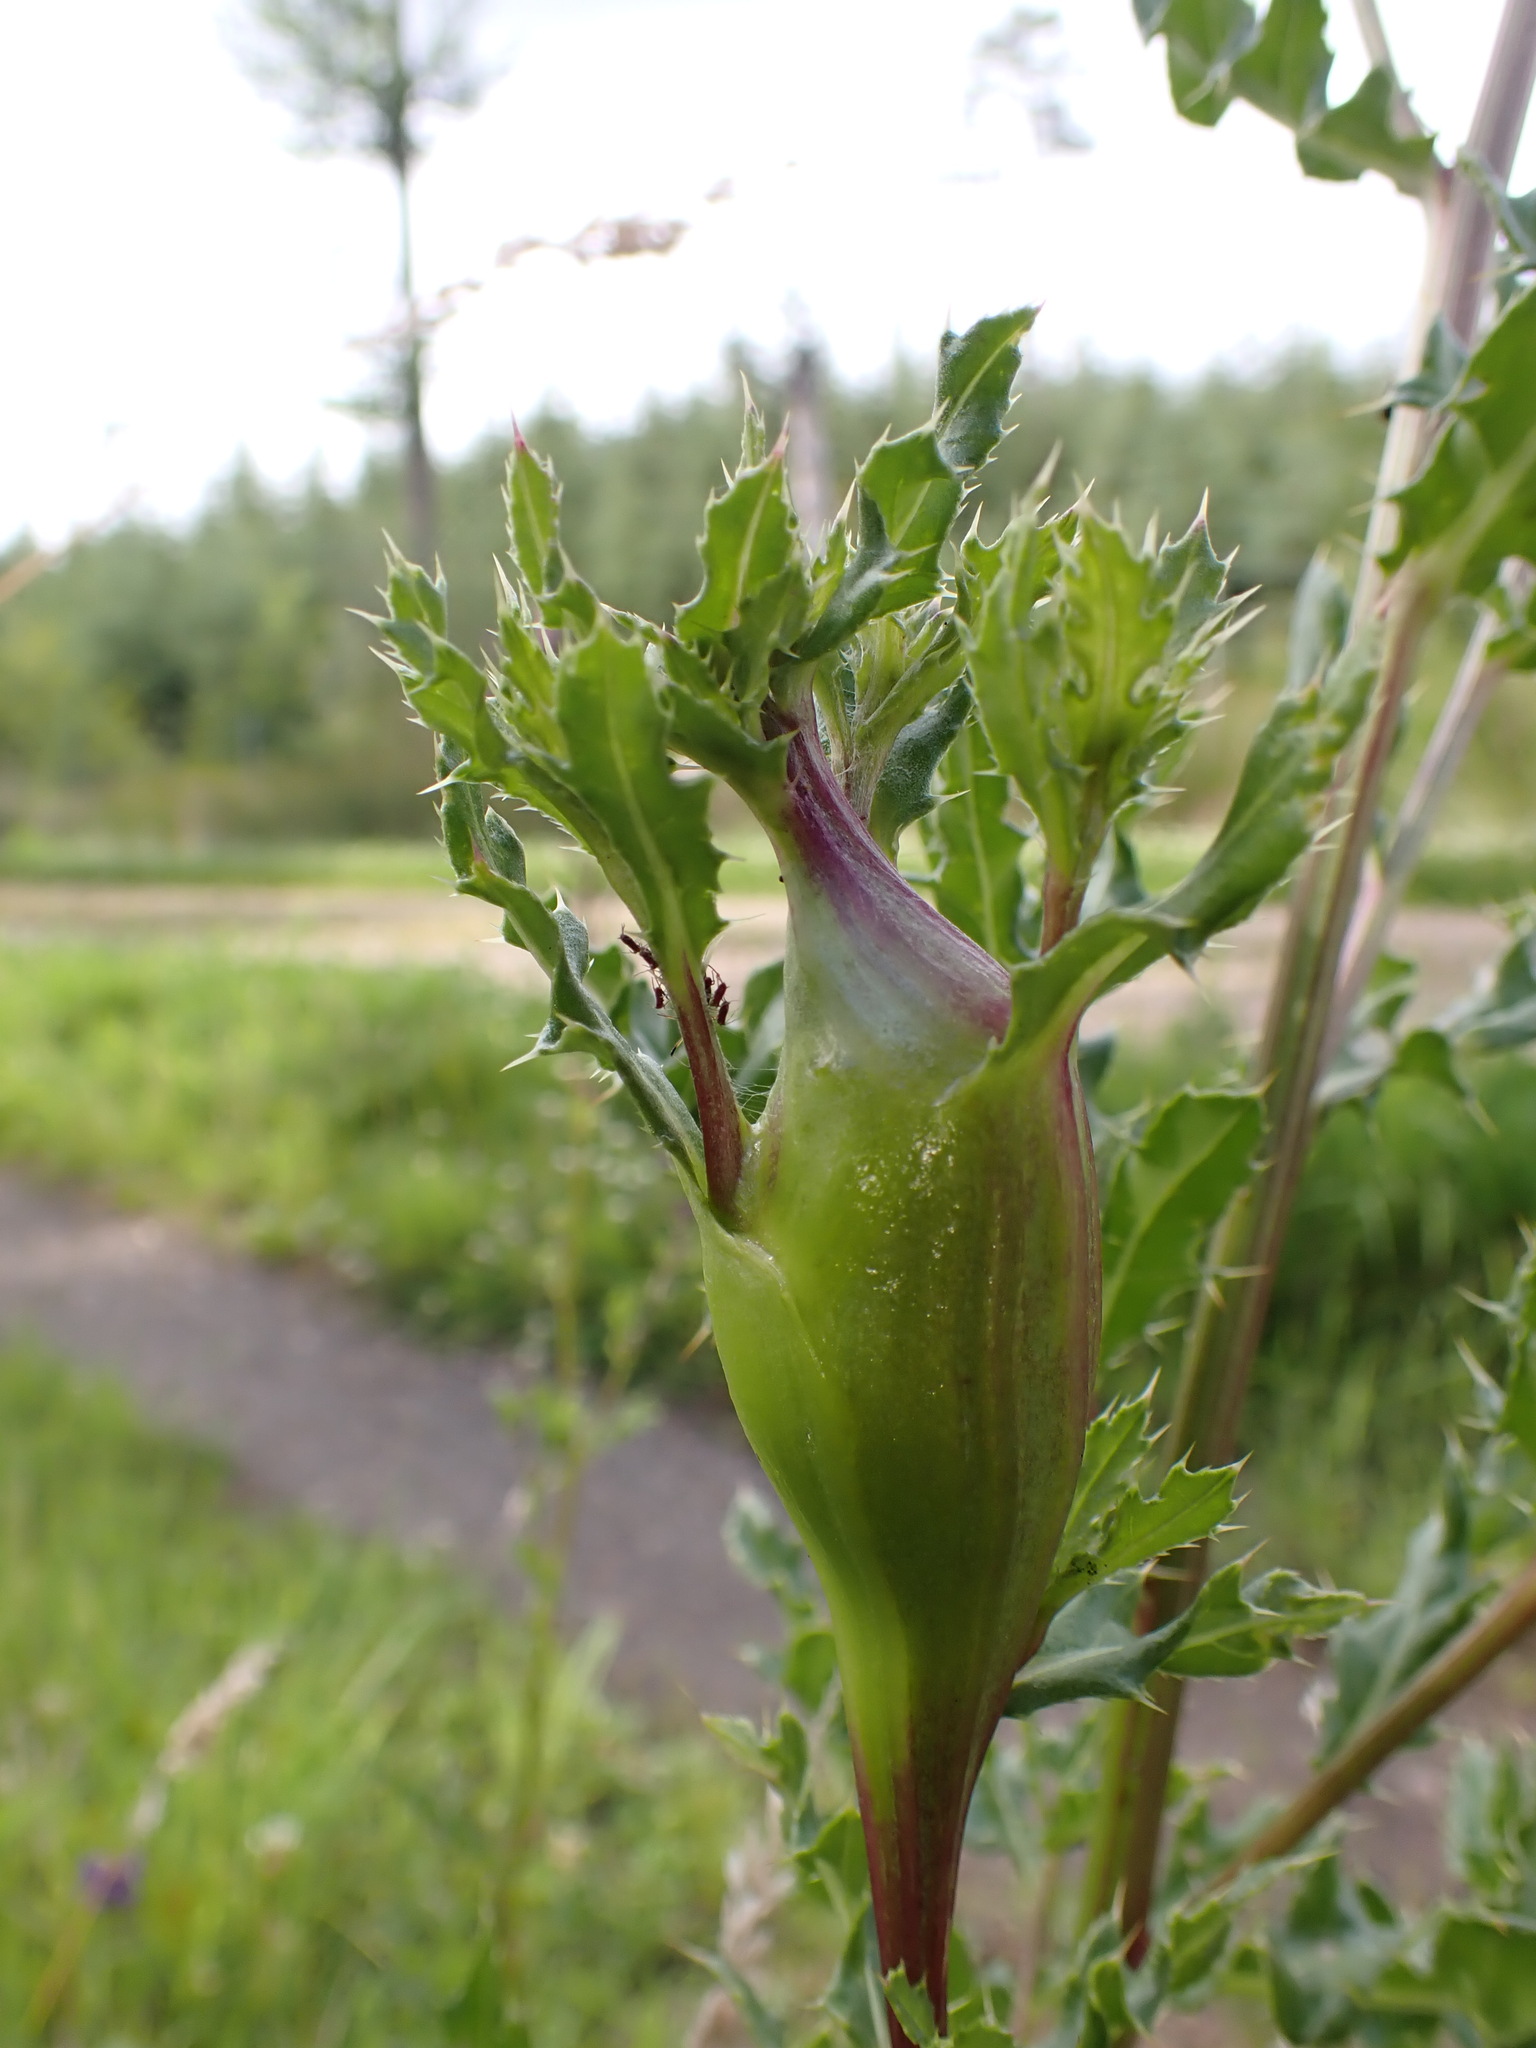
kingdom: Animalia
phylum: Arthropoda
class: Insecta
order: Diptera
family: Tephritidae
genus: Urophora
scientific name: Urophora cardui
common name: Fruit fly
